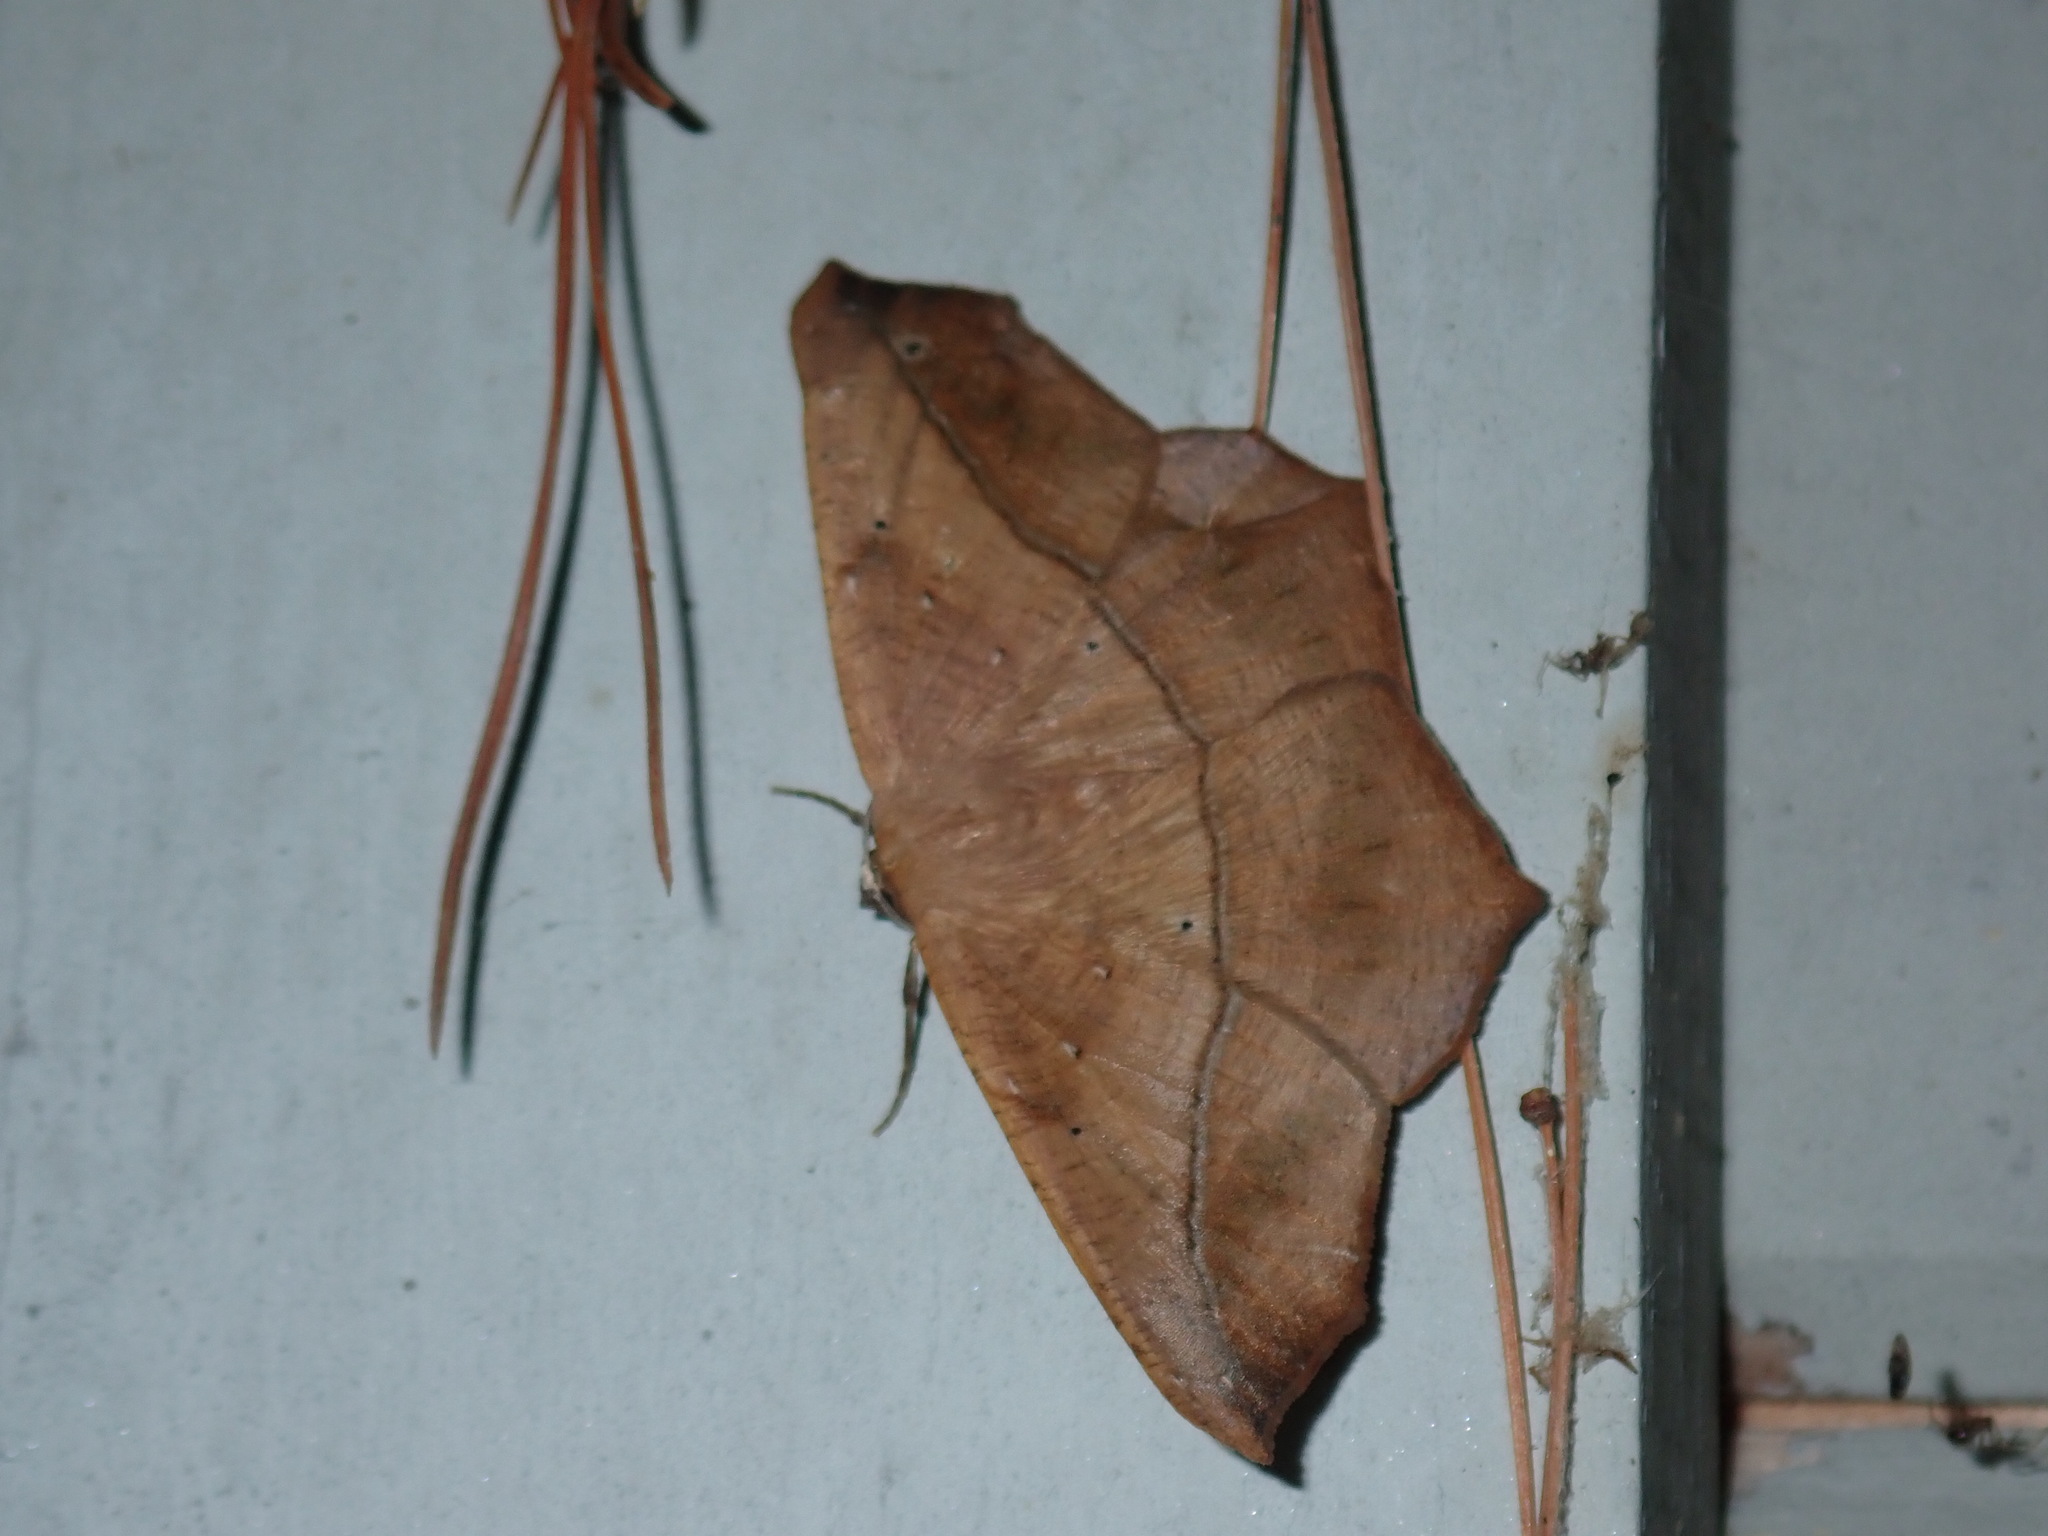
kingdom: Animalia
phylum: Arthropoda
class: Insecta
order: Lepidoptera
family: Geometridae
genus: Prochoerodes
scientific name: Prochoerodes lineola
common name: Large maple spanworm
